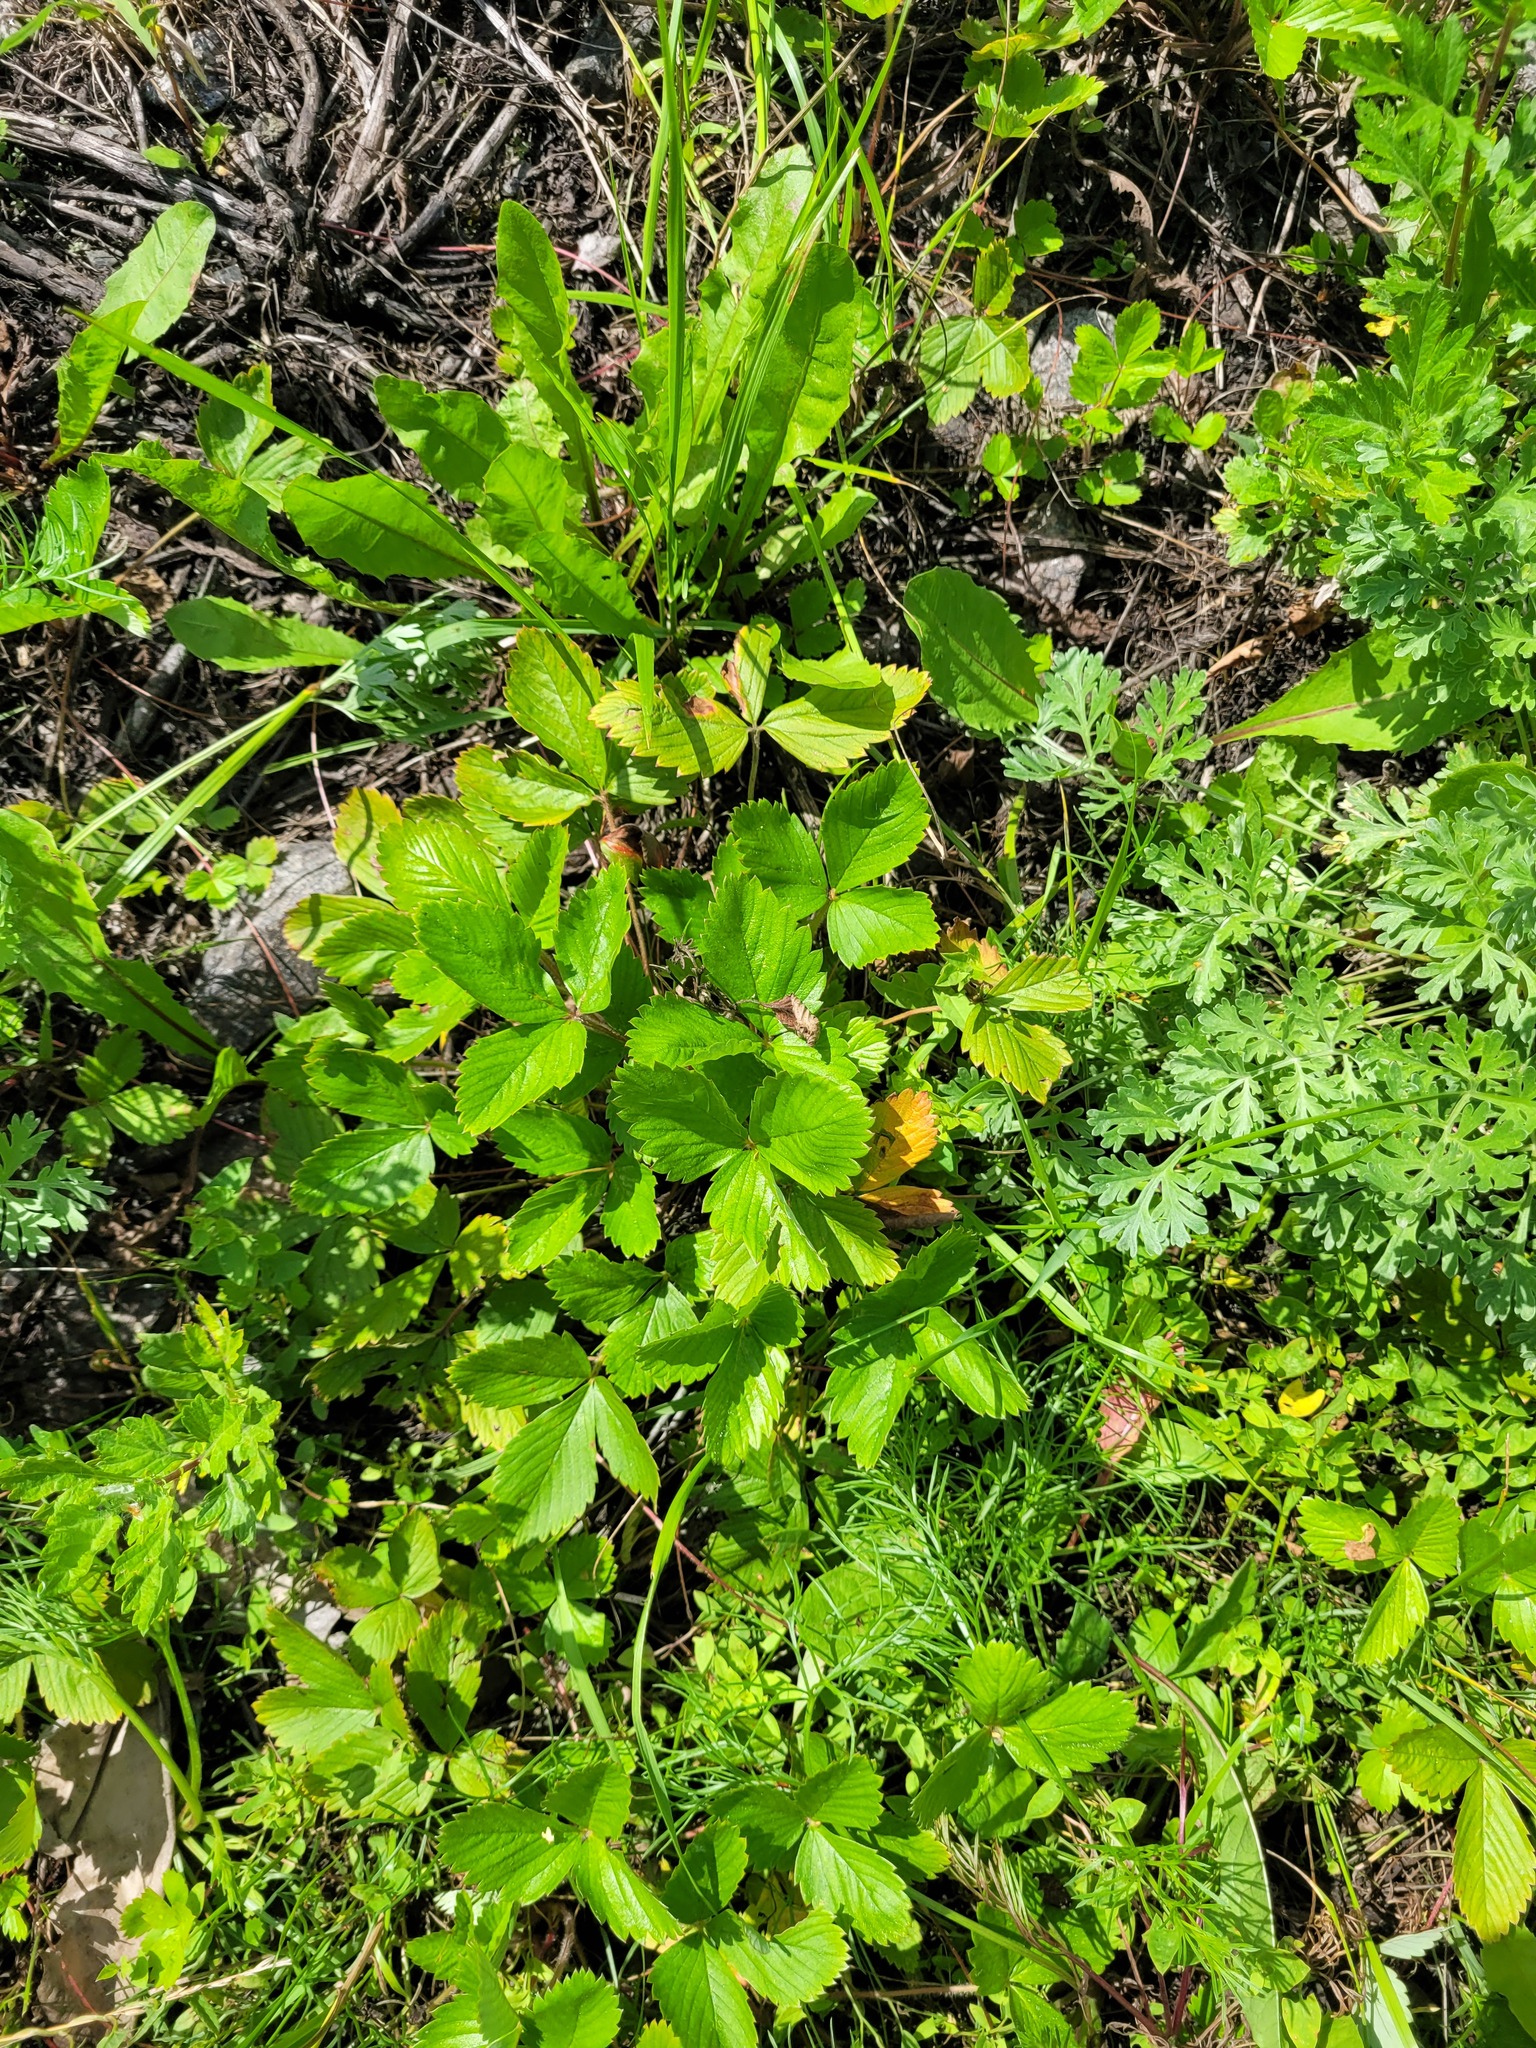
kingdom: Plantae
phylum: Tracheophyta
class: Magnoliopsida
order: Rosales
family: Rosaceae
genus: Fragaria
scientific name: Fragaria vesca
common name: Wild strawberry
